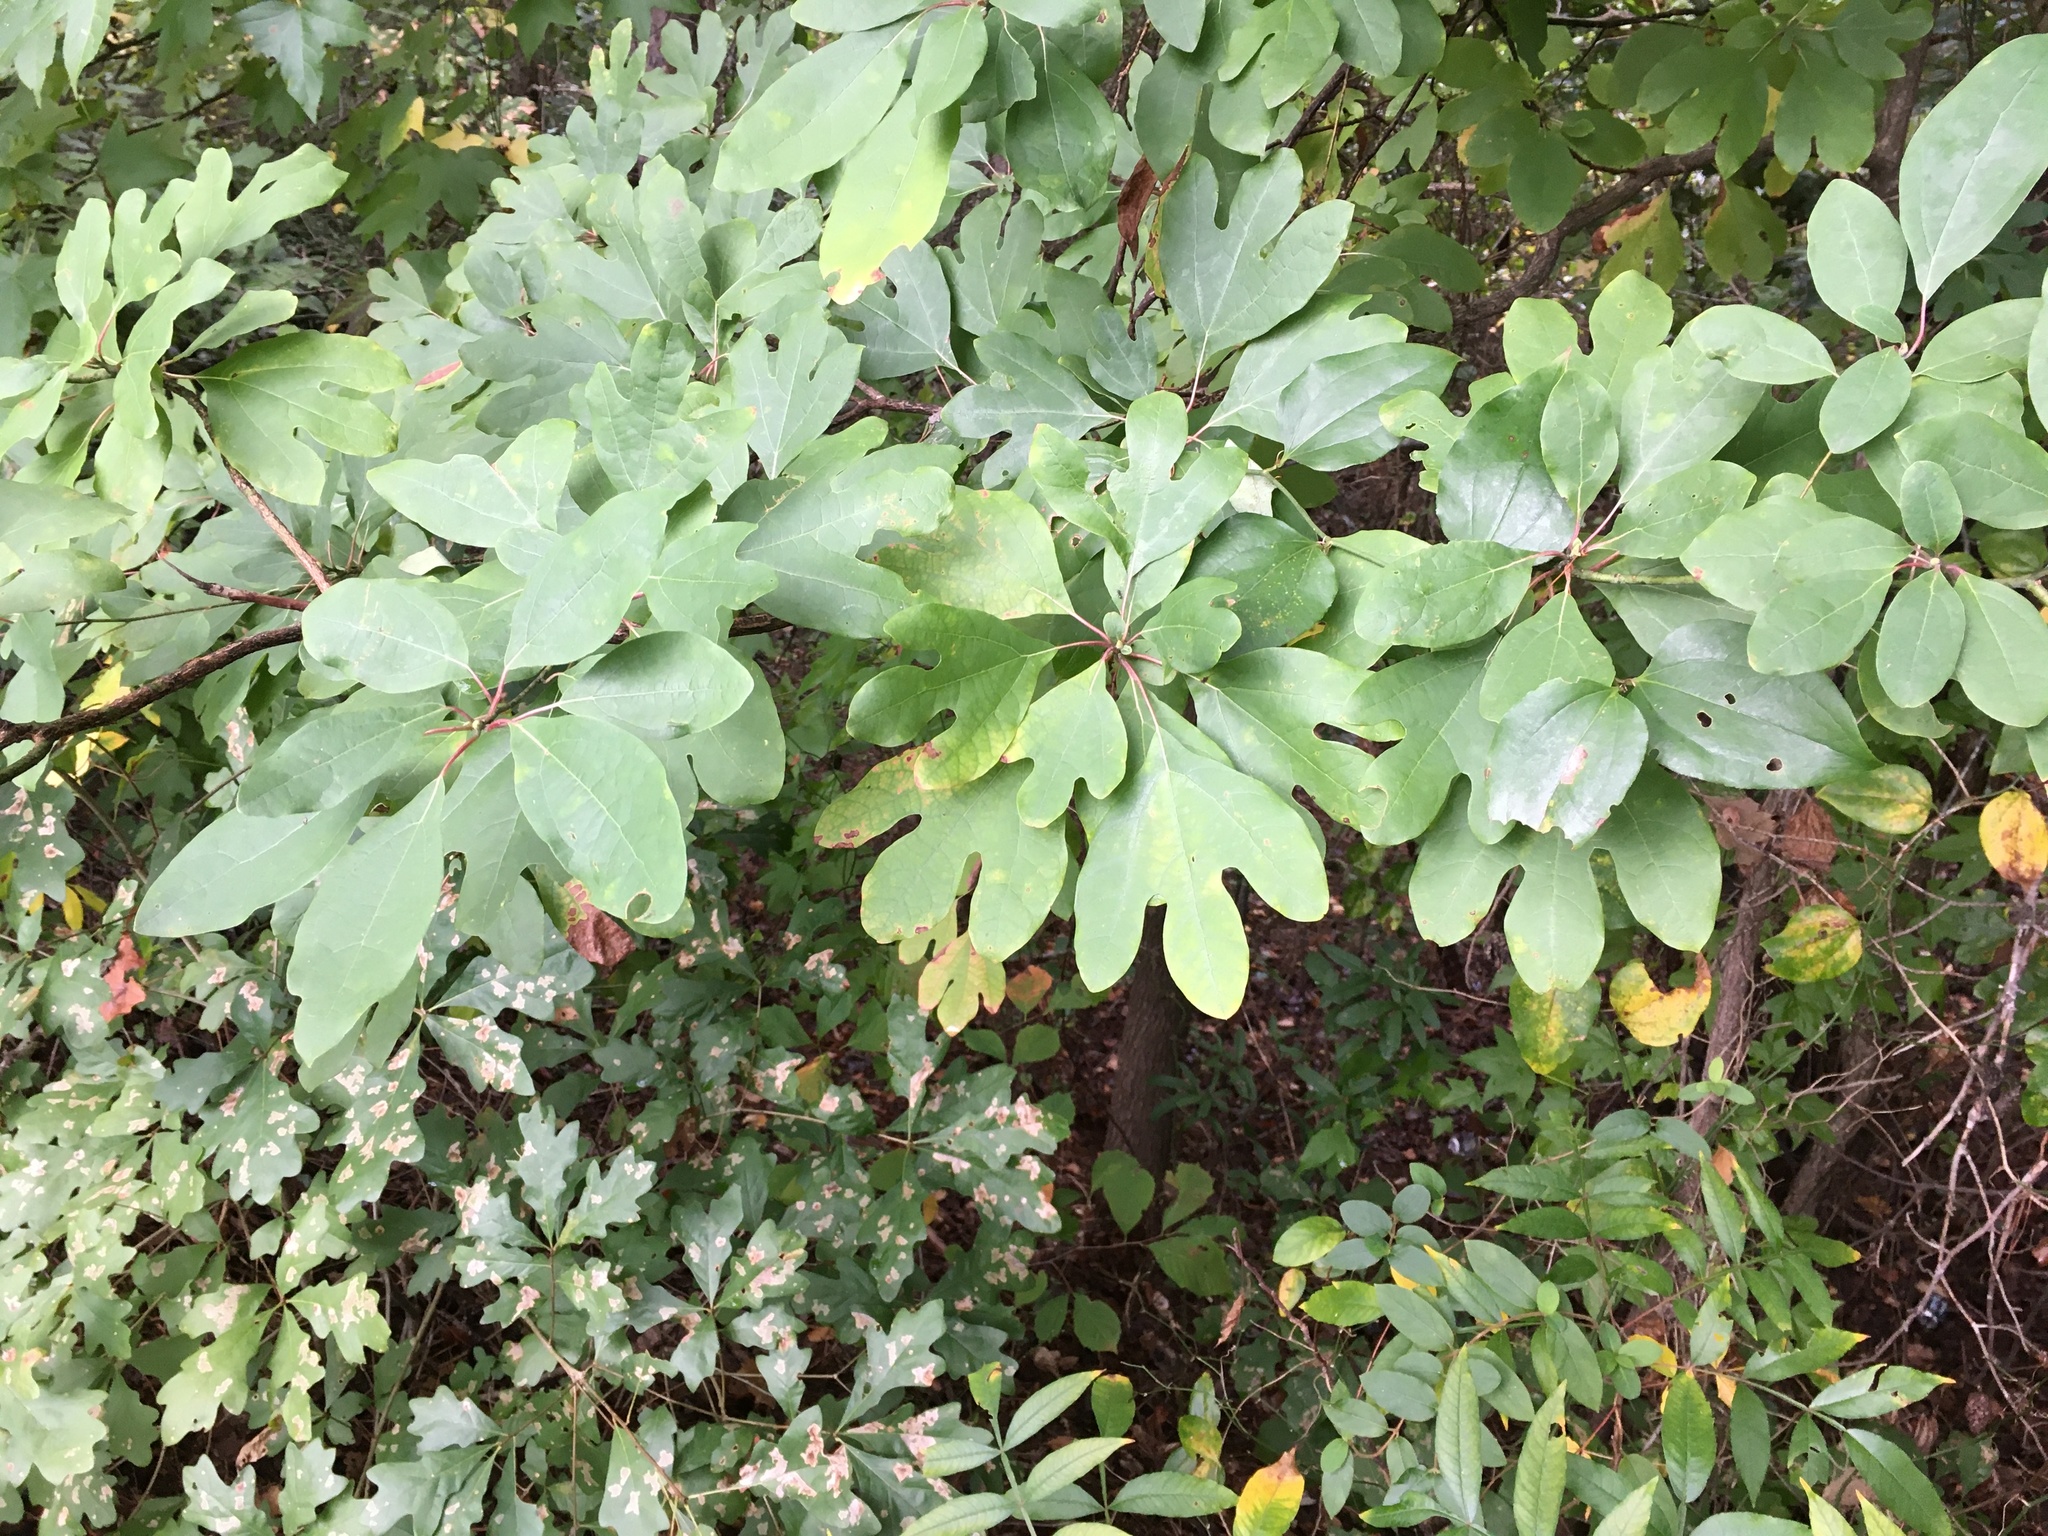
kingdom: Plantae
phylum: Tracheophyta
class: Magnoliopsida
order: Laurales
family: Lauraceae
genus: Sassafras
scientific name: Sassafras albidum
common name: Sassafras
